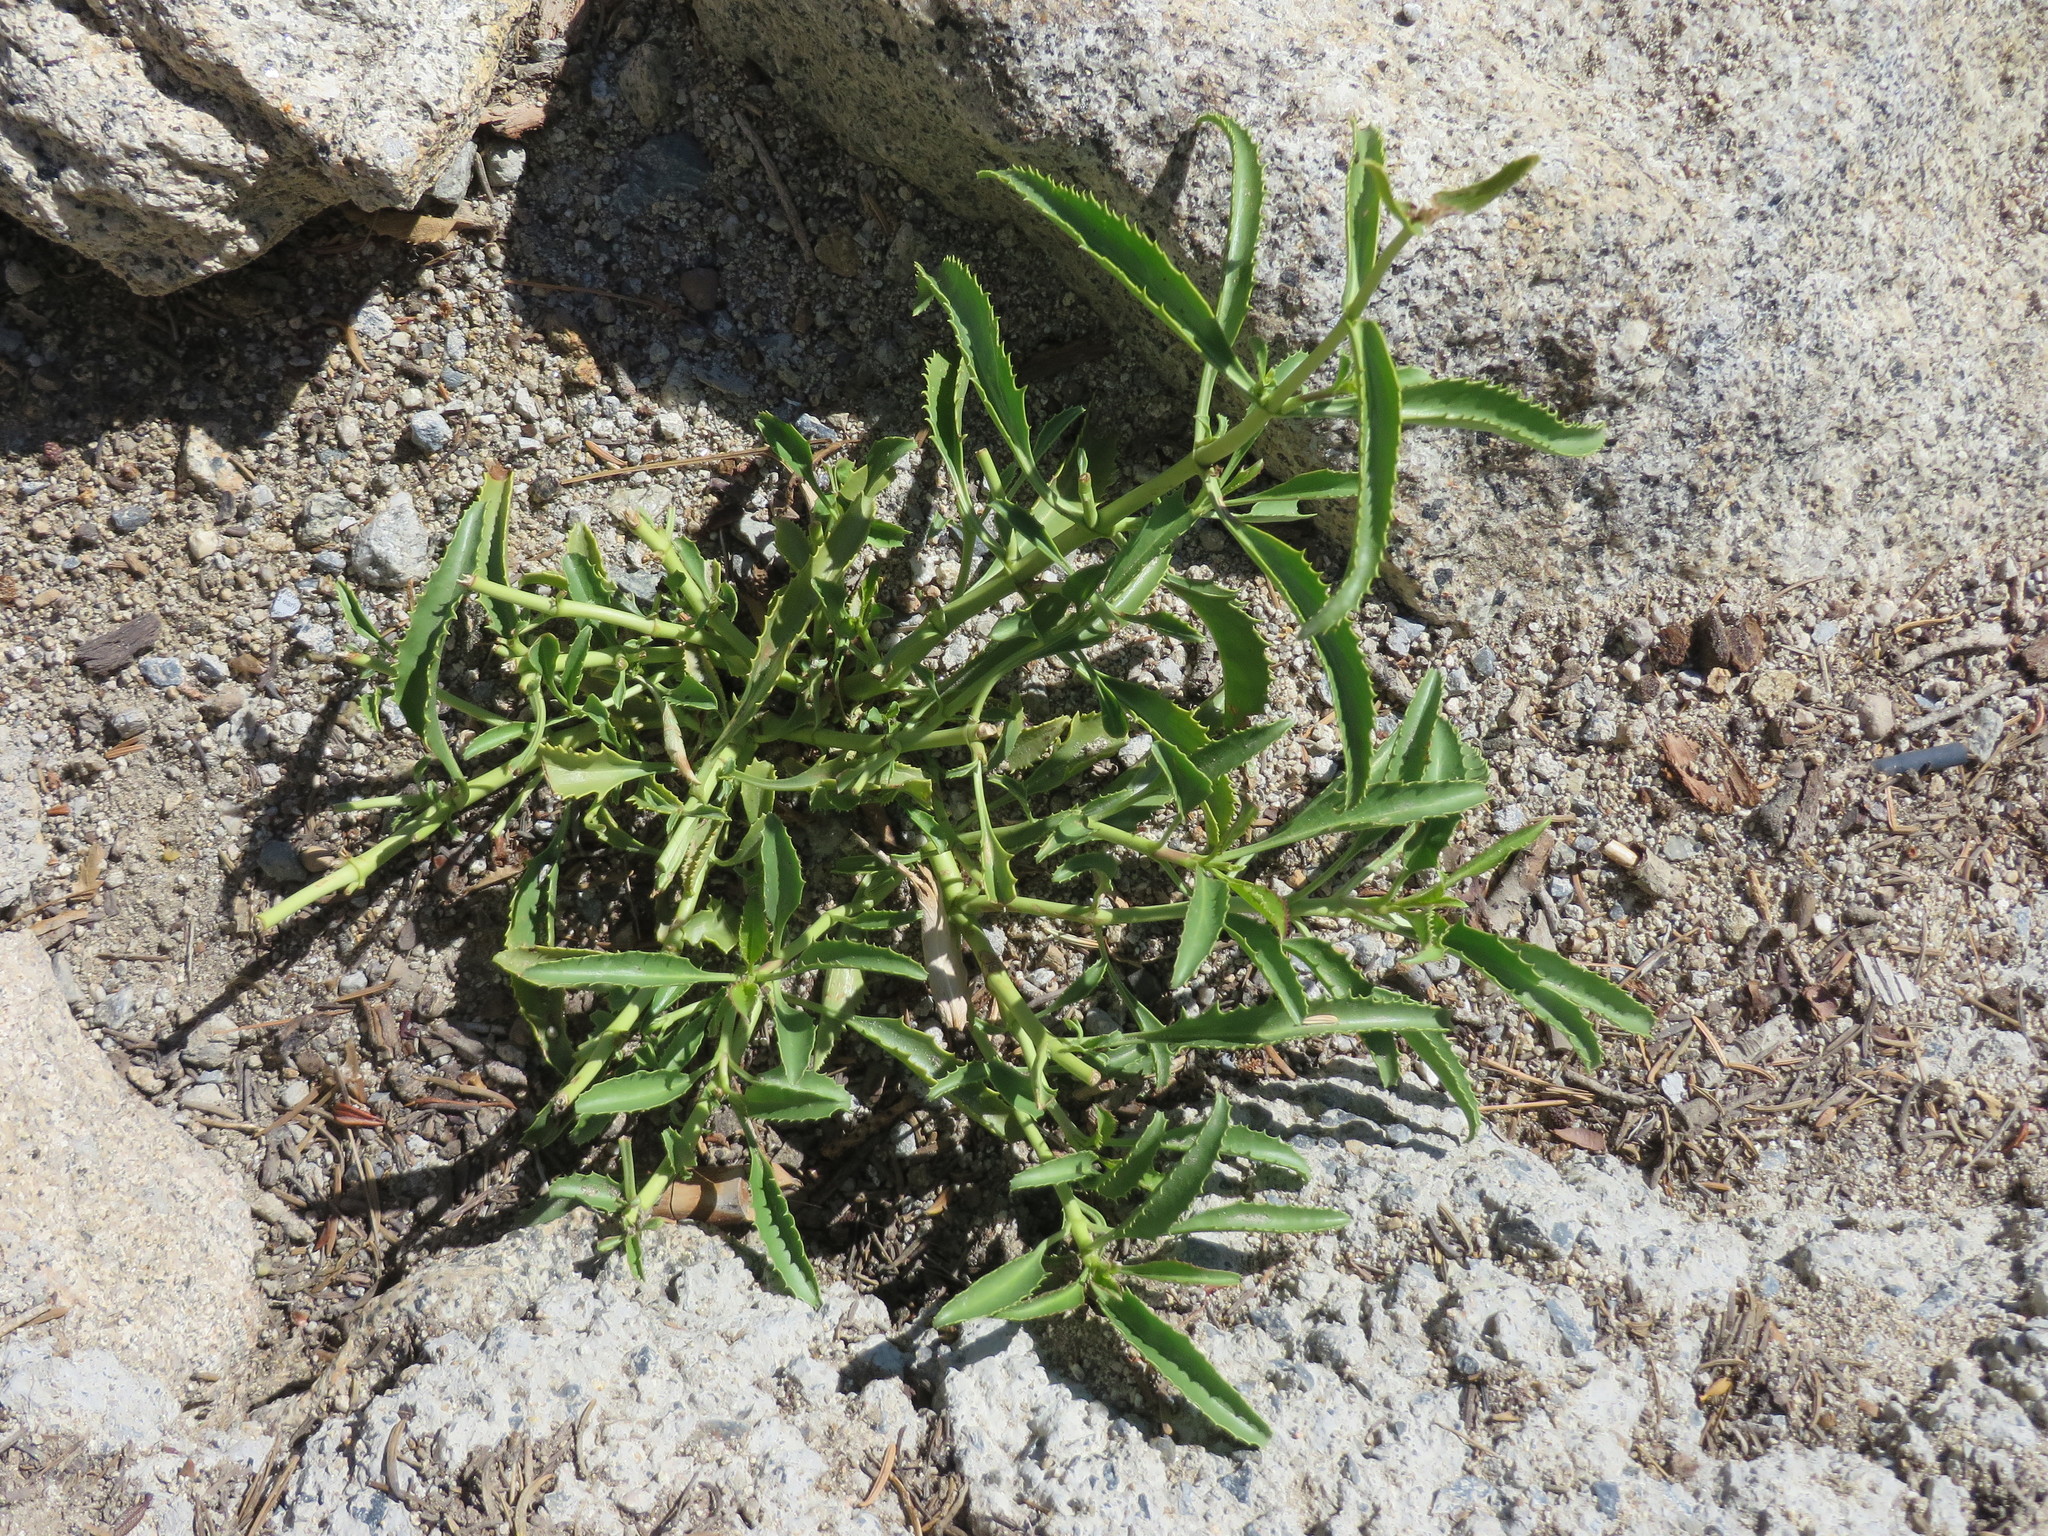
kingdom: Plantae
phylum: Tracheophyta
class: Magnoliopsida
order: Lamiales
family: Plantaginaceae
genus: Penstemon
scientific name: Penstemon grinnellii
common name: Grinnell's beardtongue
